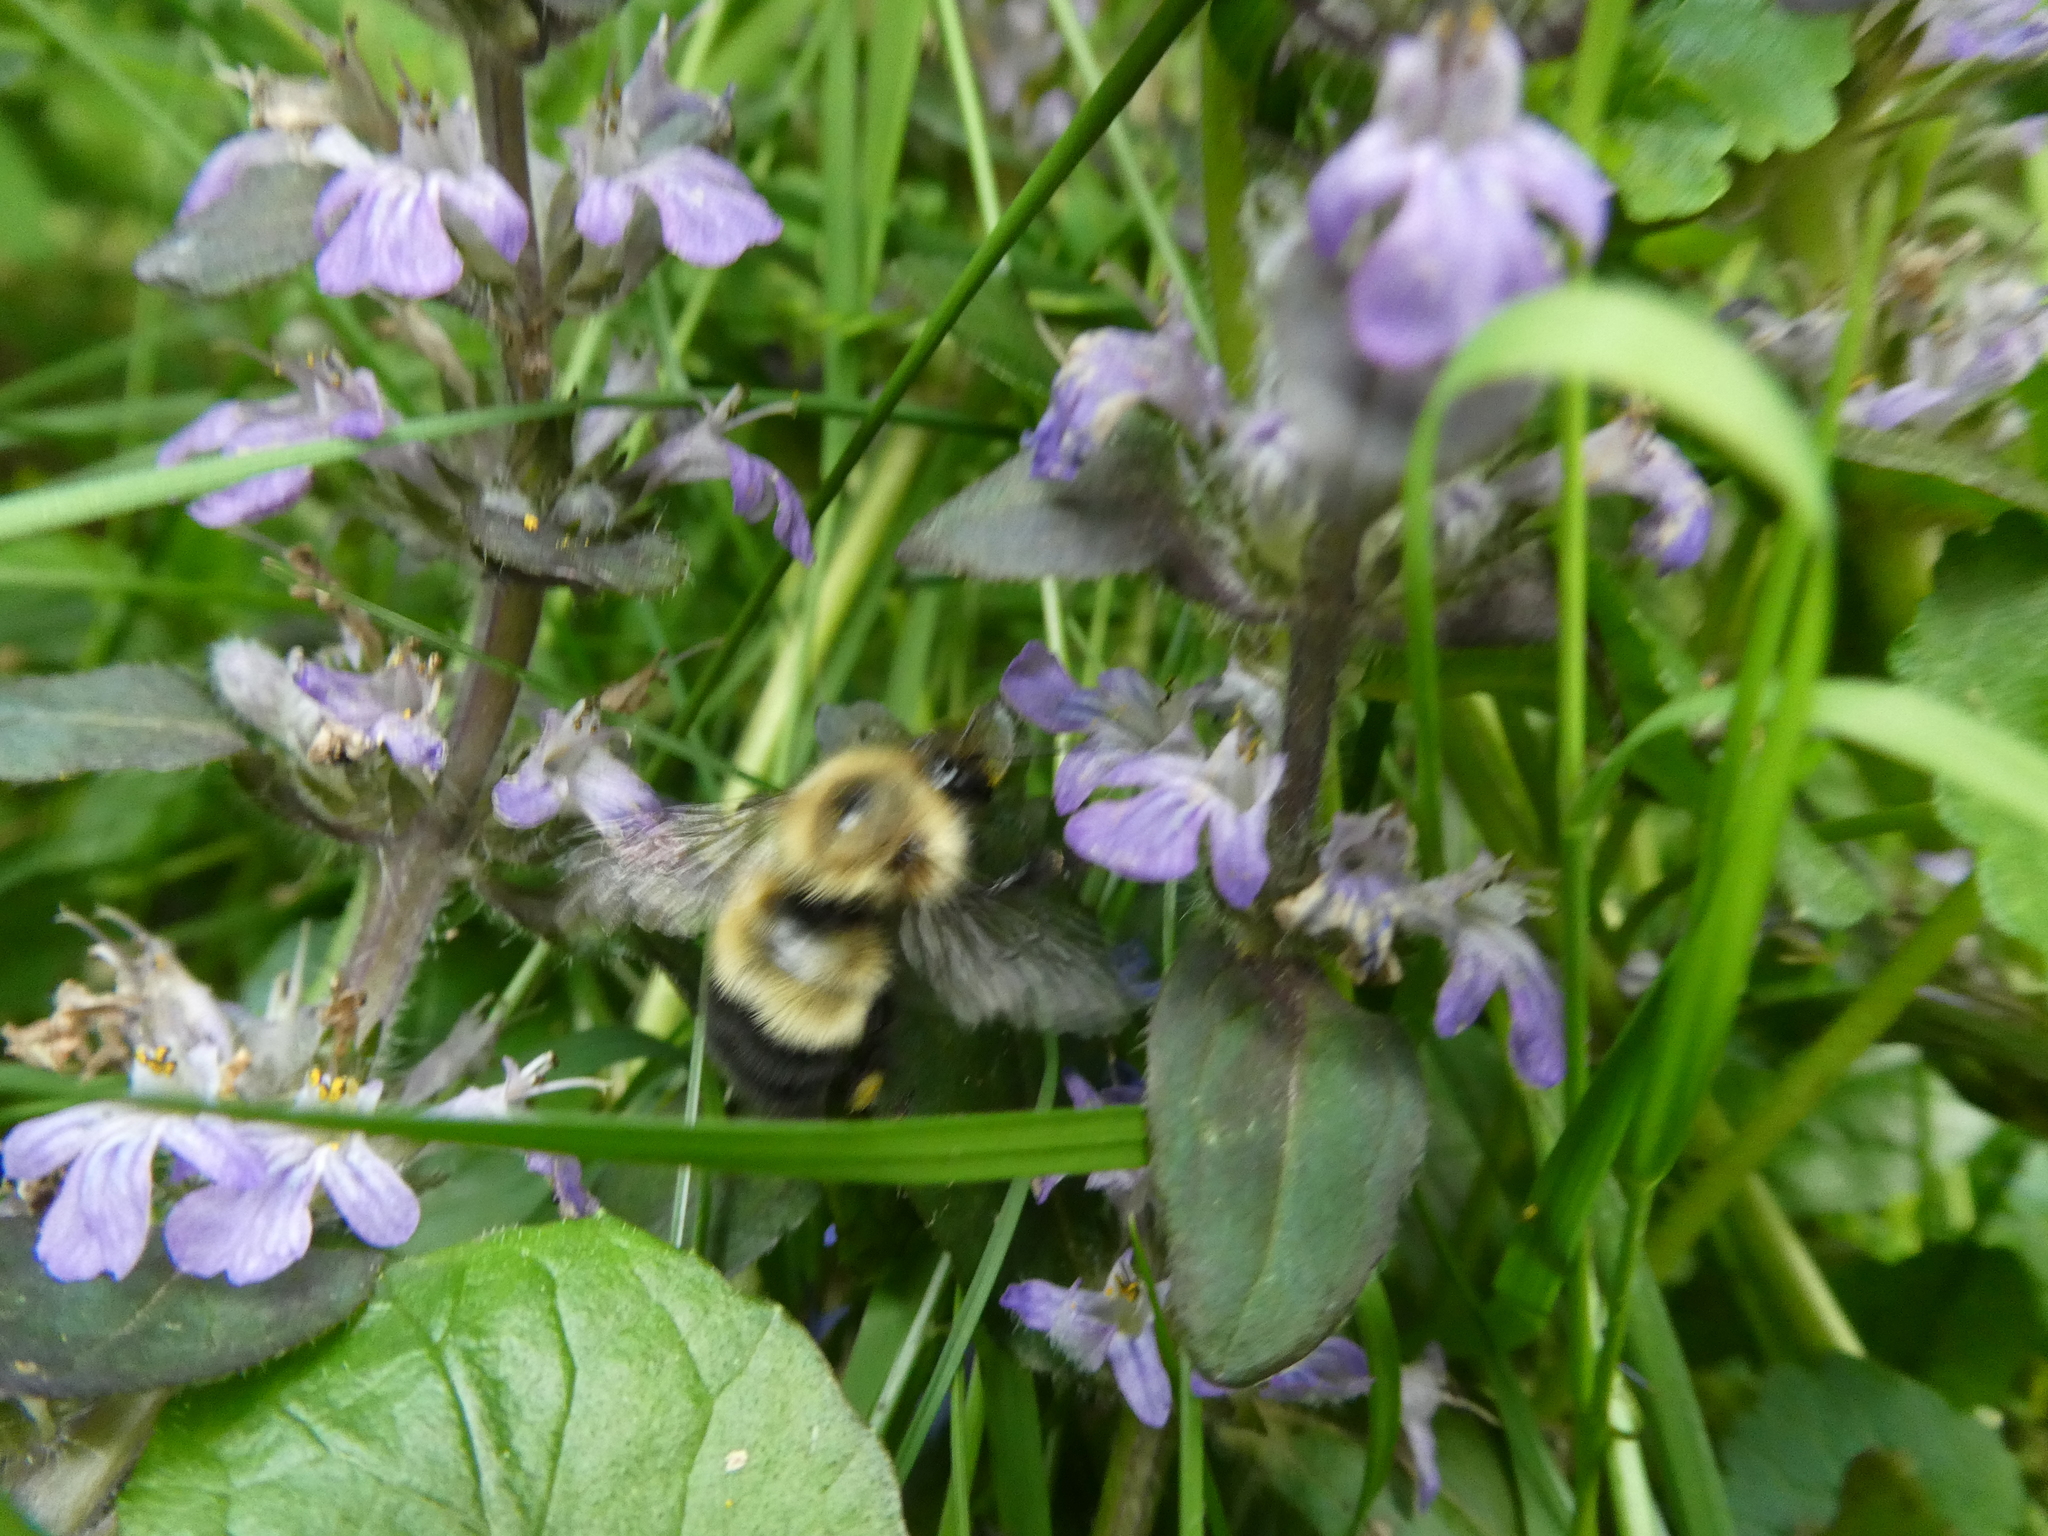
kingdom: Animalia
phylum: Arthropoda
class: Insecta
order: Hymenoptera
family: Apidae
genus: Pyrobombus
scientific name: Pyrobombus
